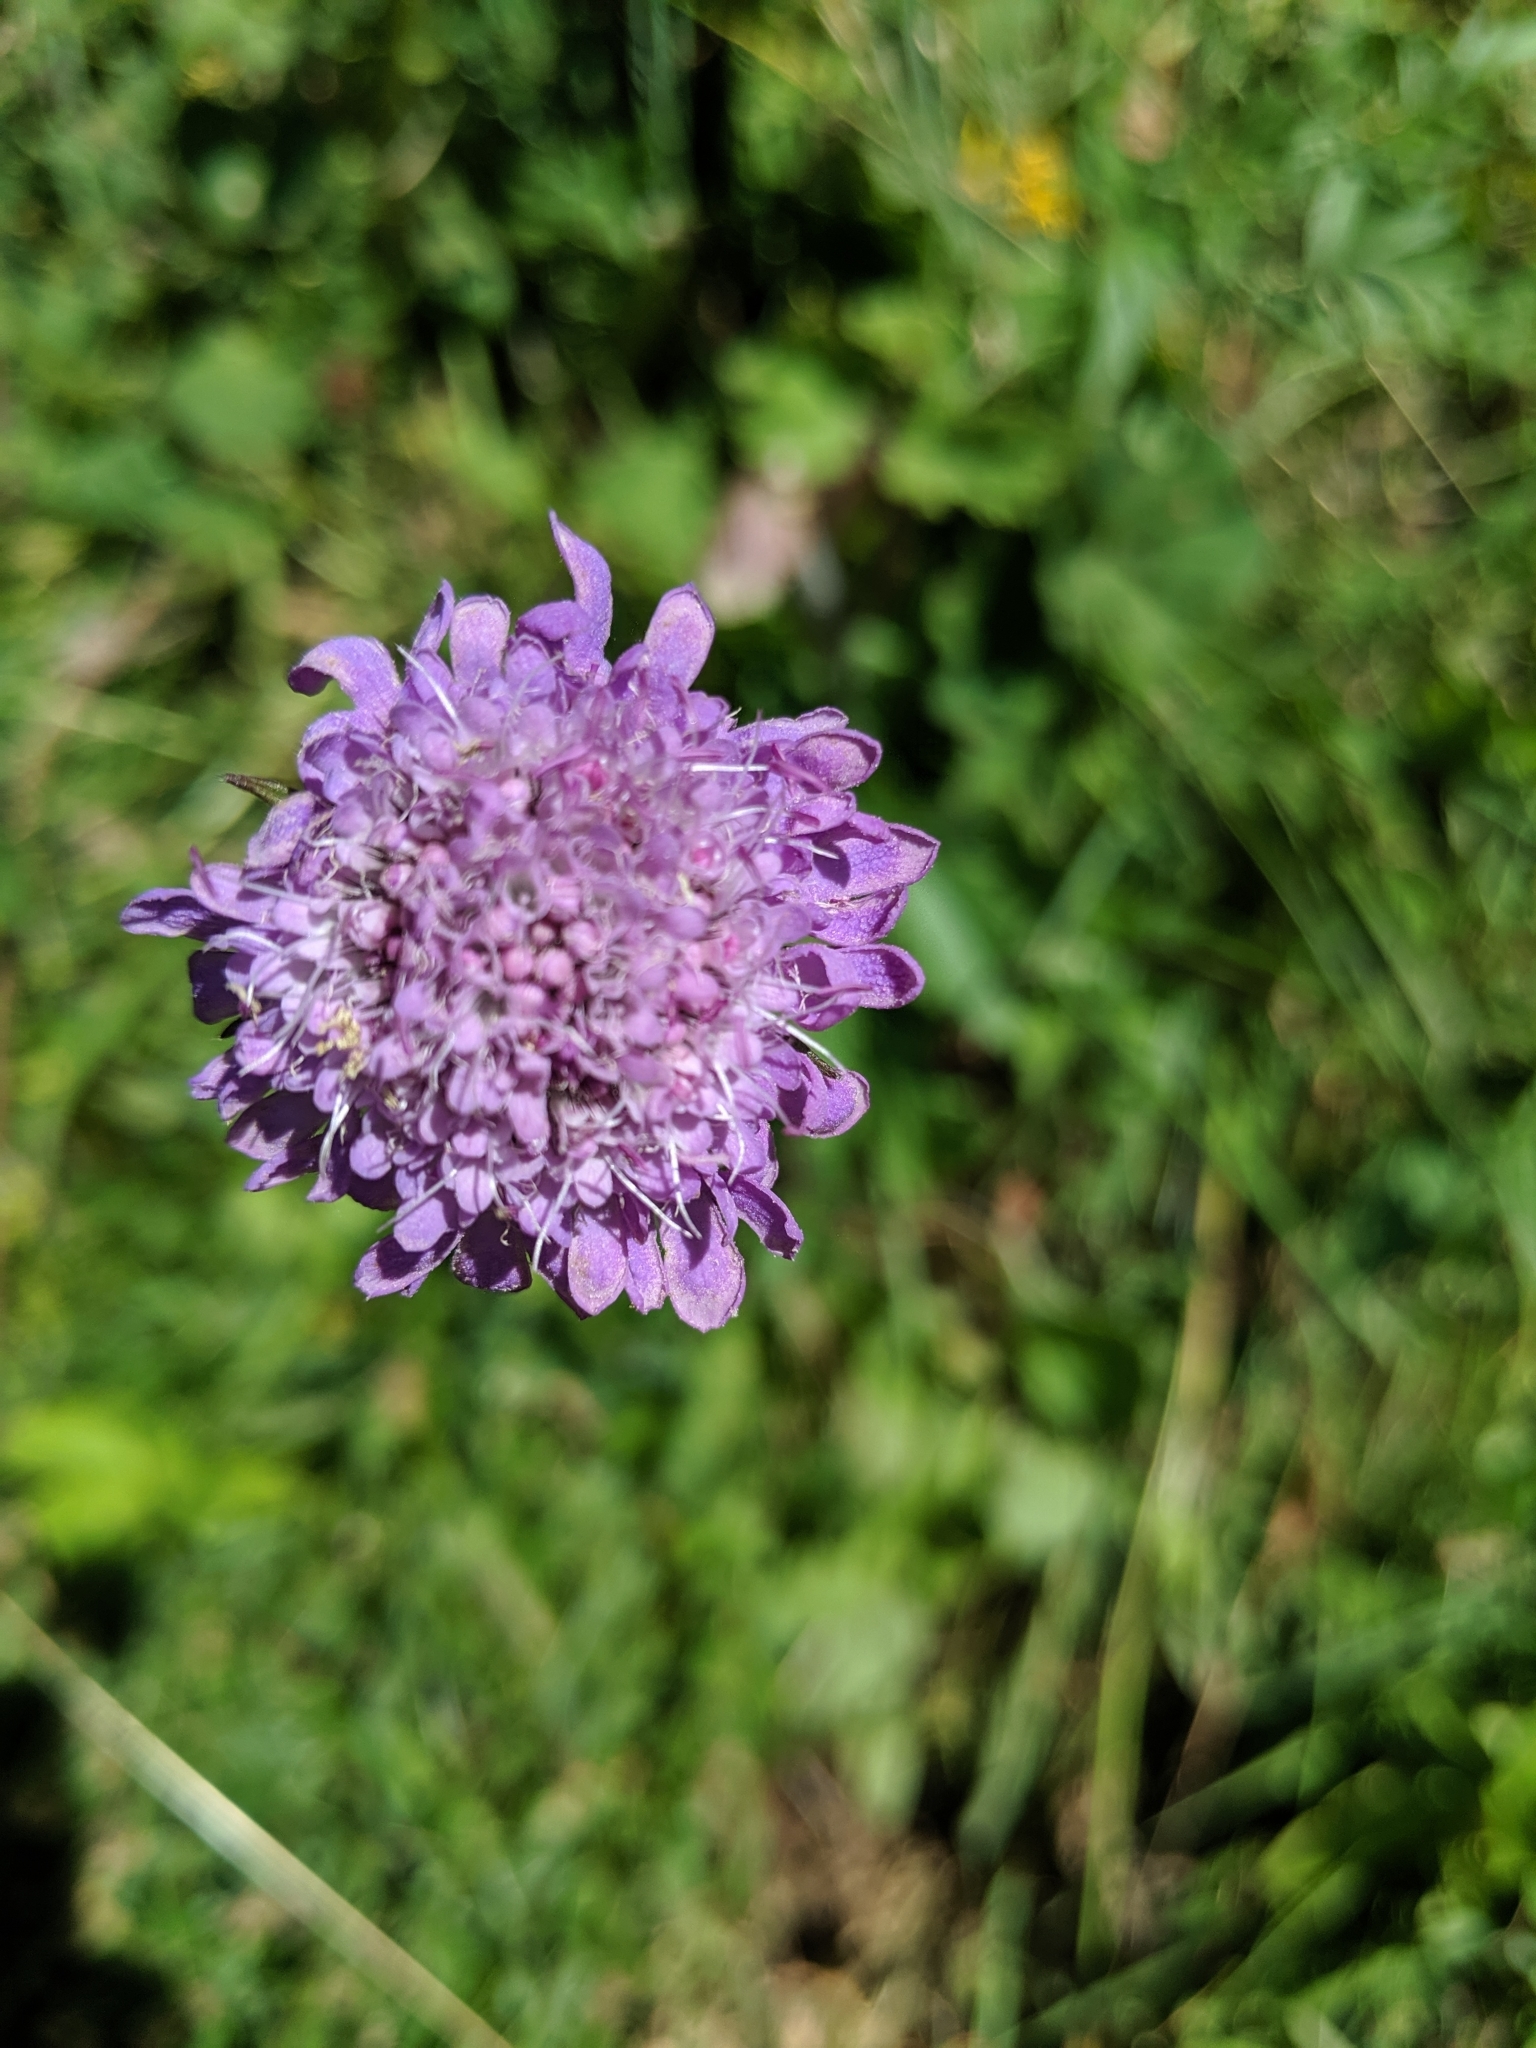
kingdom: Plantae
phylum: Tracheophyta
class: Magnoliopsida
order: Dipsacales
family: Caprifoliaceae
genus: Scabiosa
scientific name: Scabiosa lucida
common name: Shining scabious
